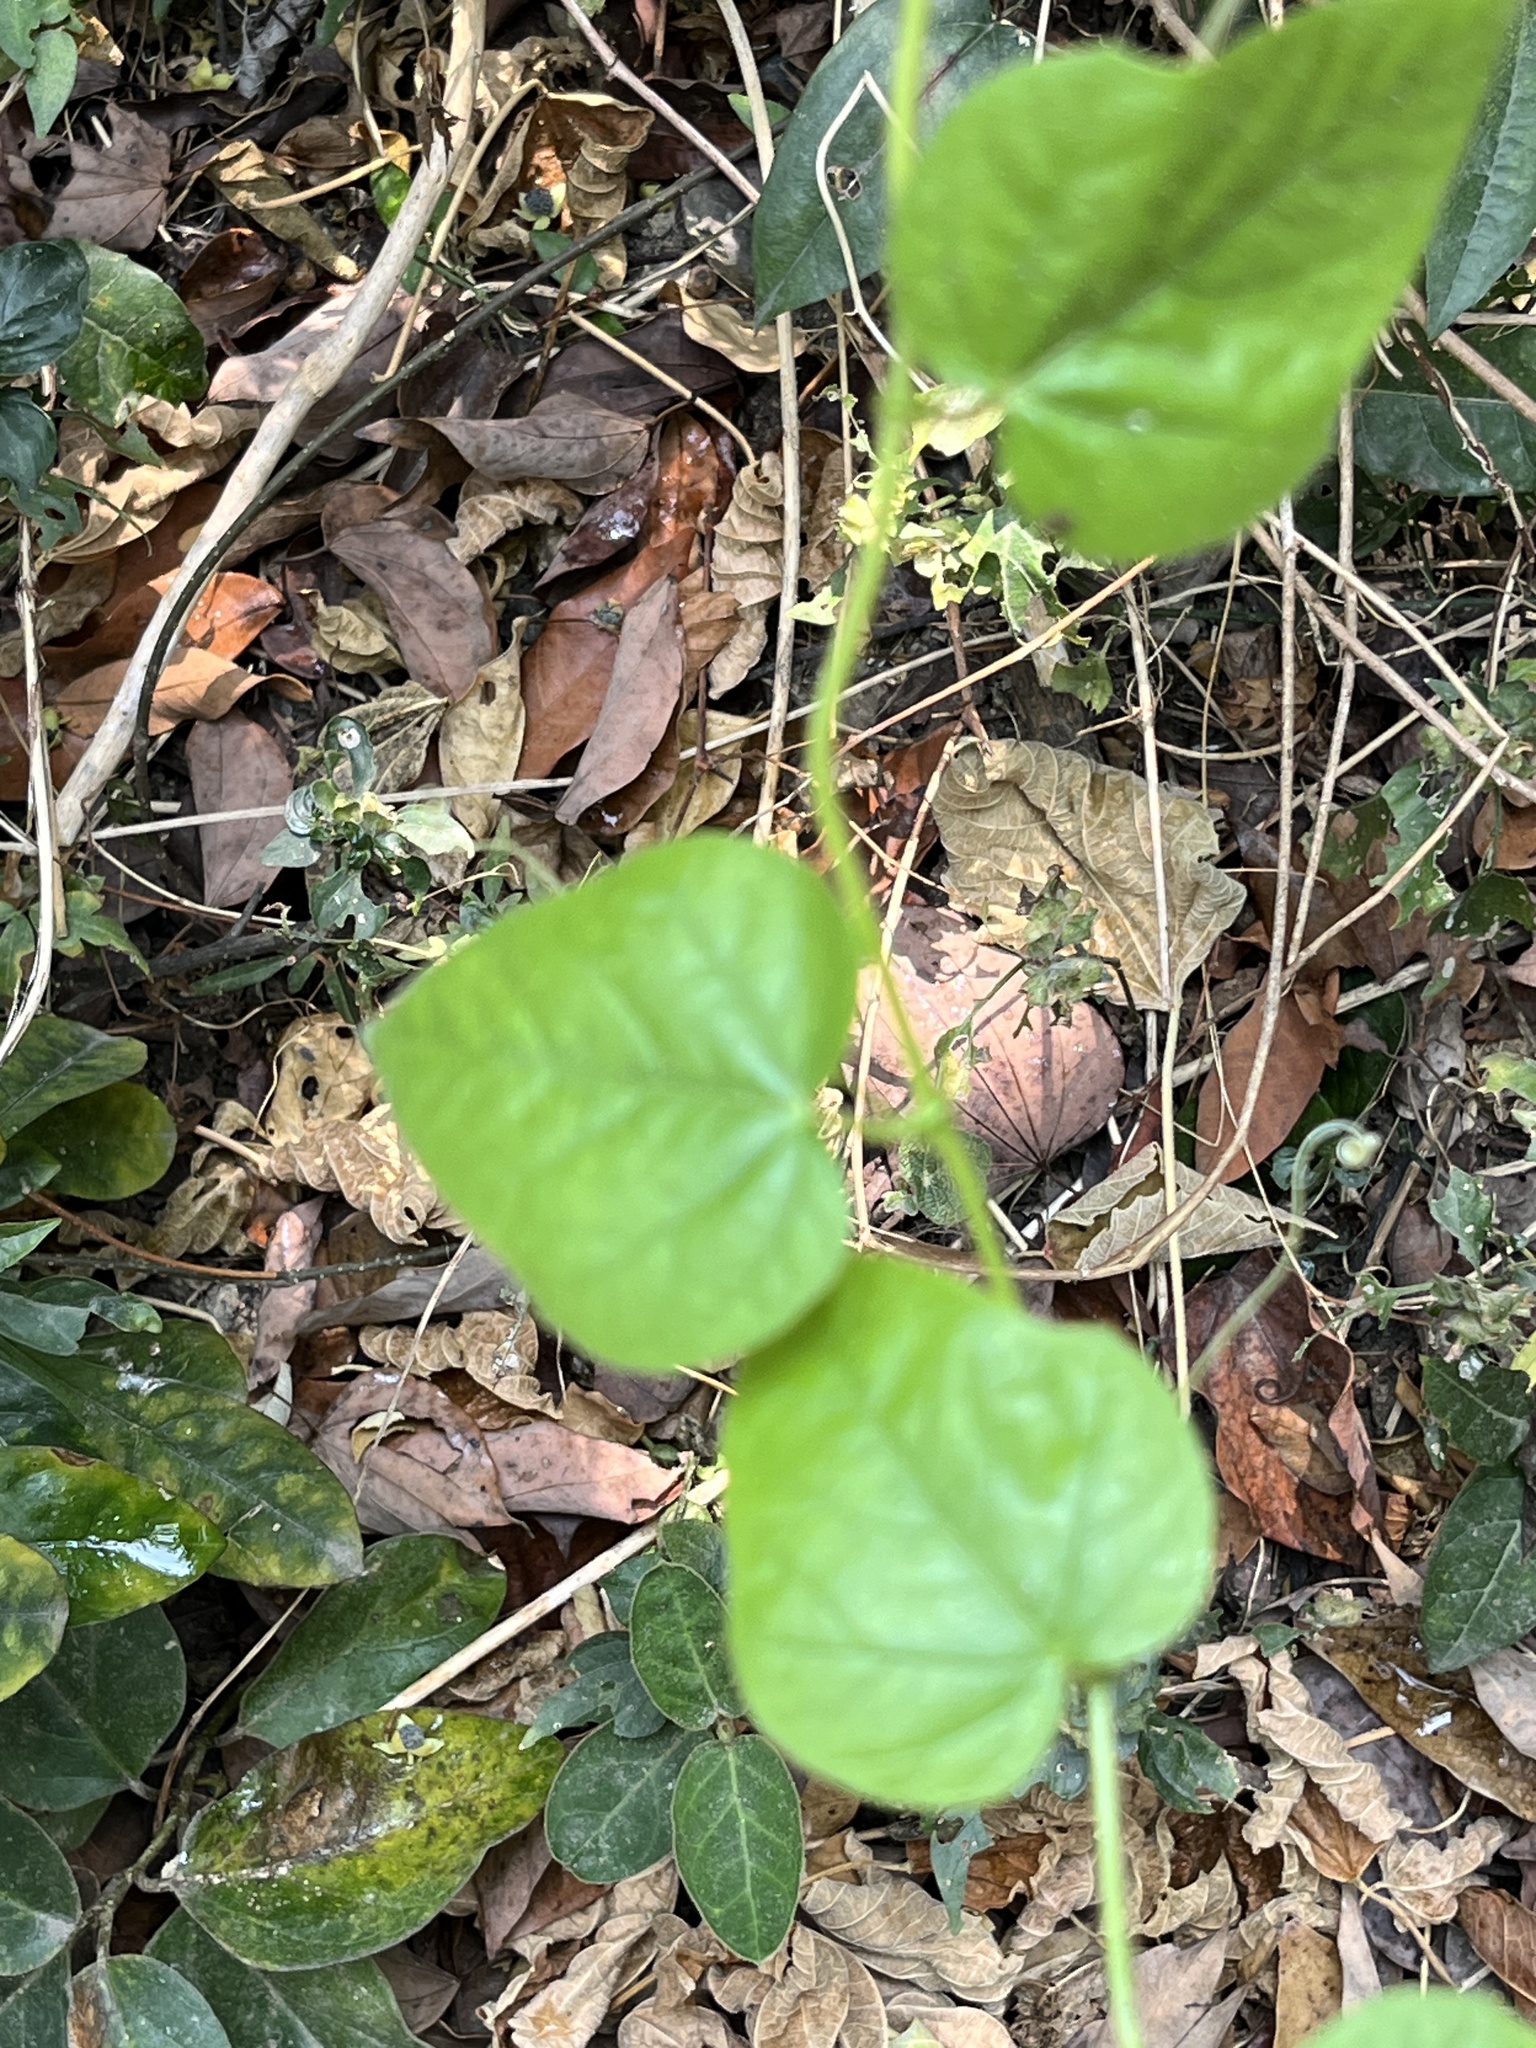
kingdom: Plantae
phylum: Tracheophyta
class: Magnoliopsida
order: Malpighiales
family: Passifloraceae
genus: Passiflora
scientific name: Passiflora vesicaria
